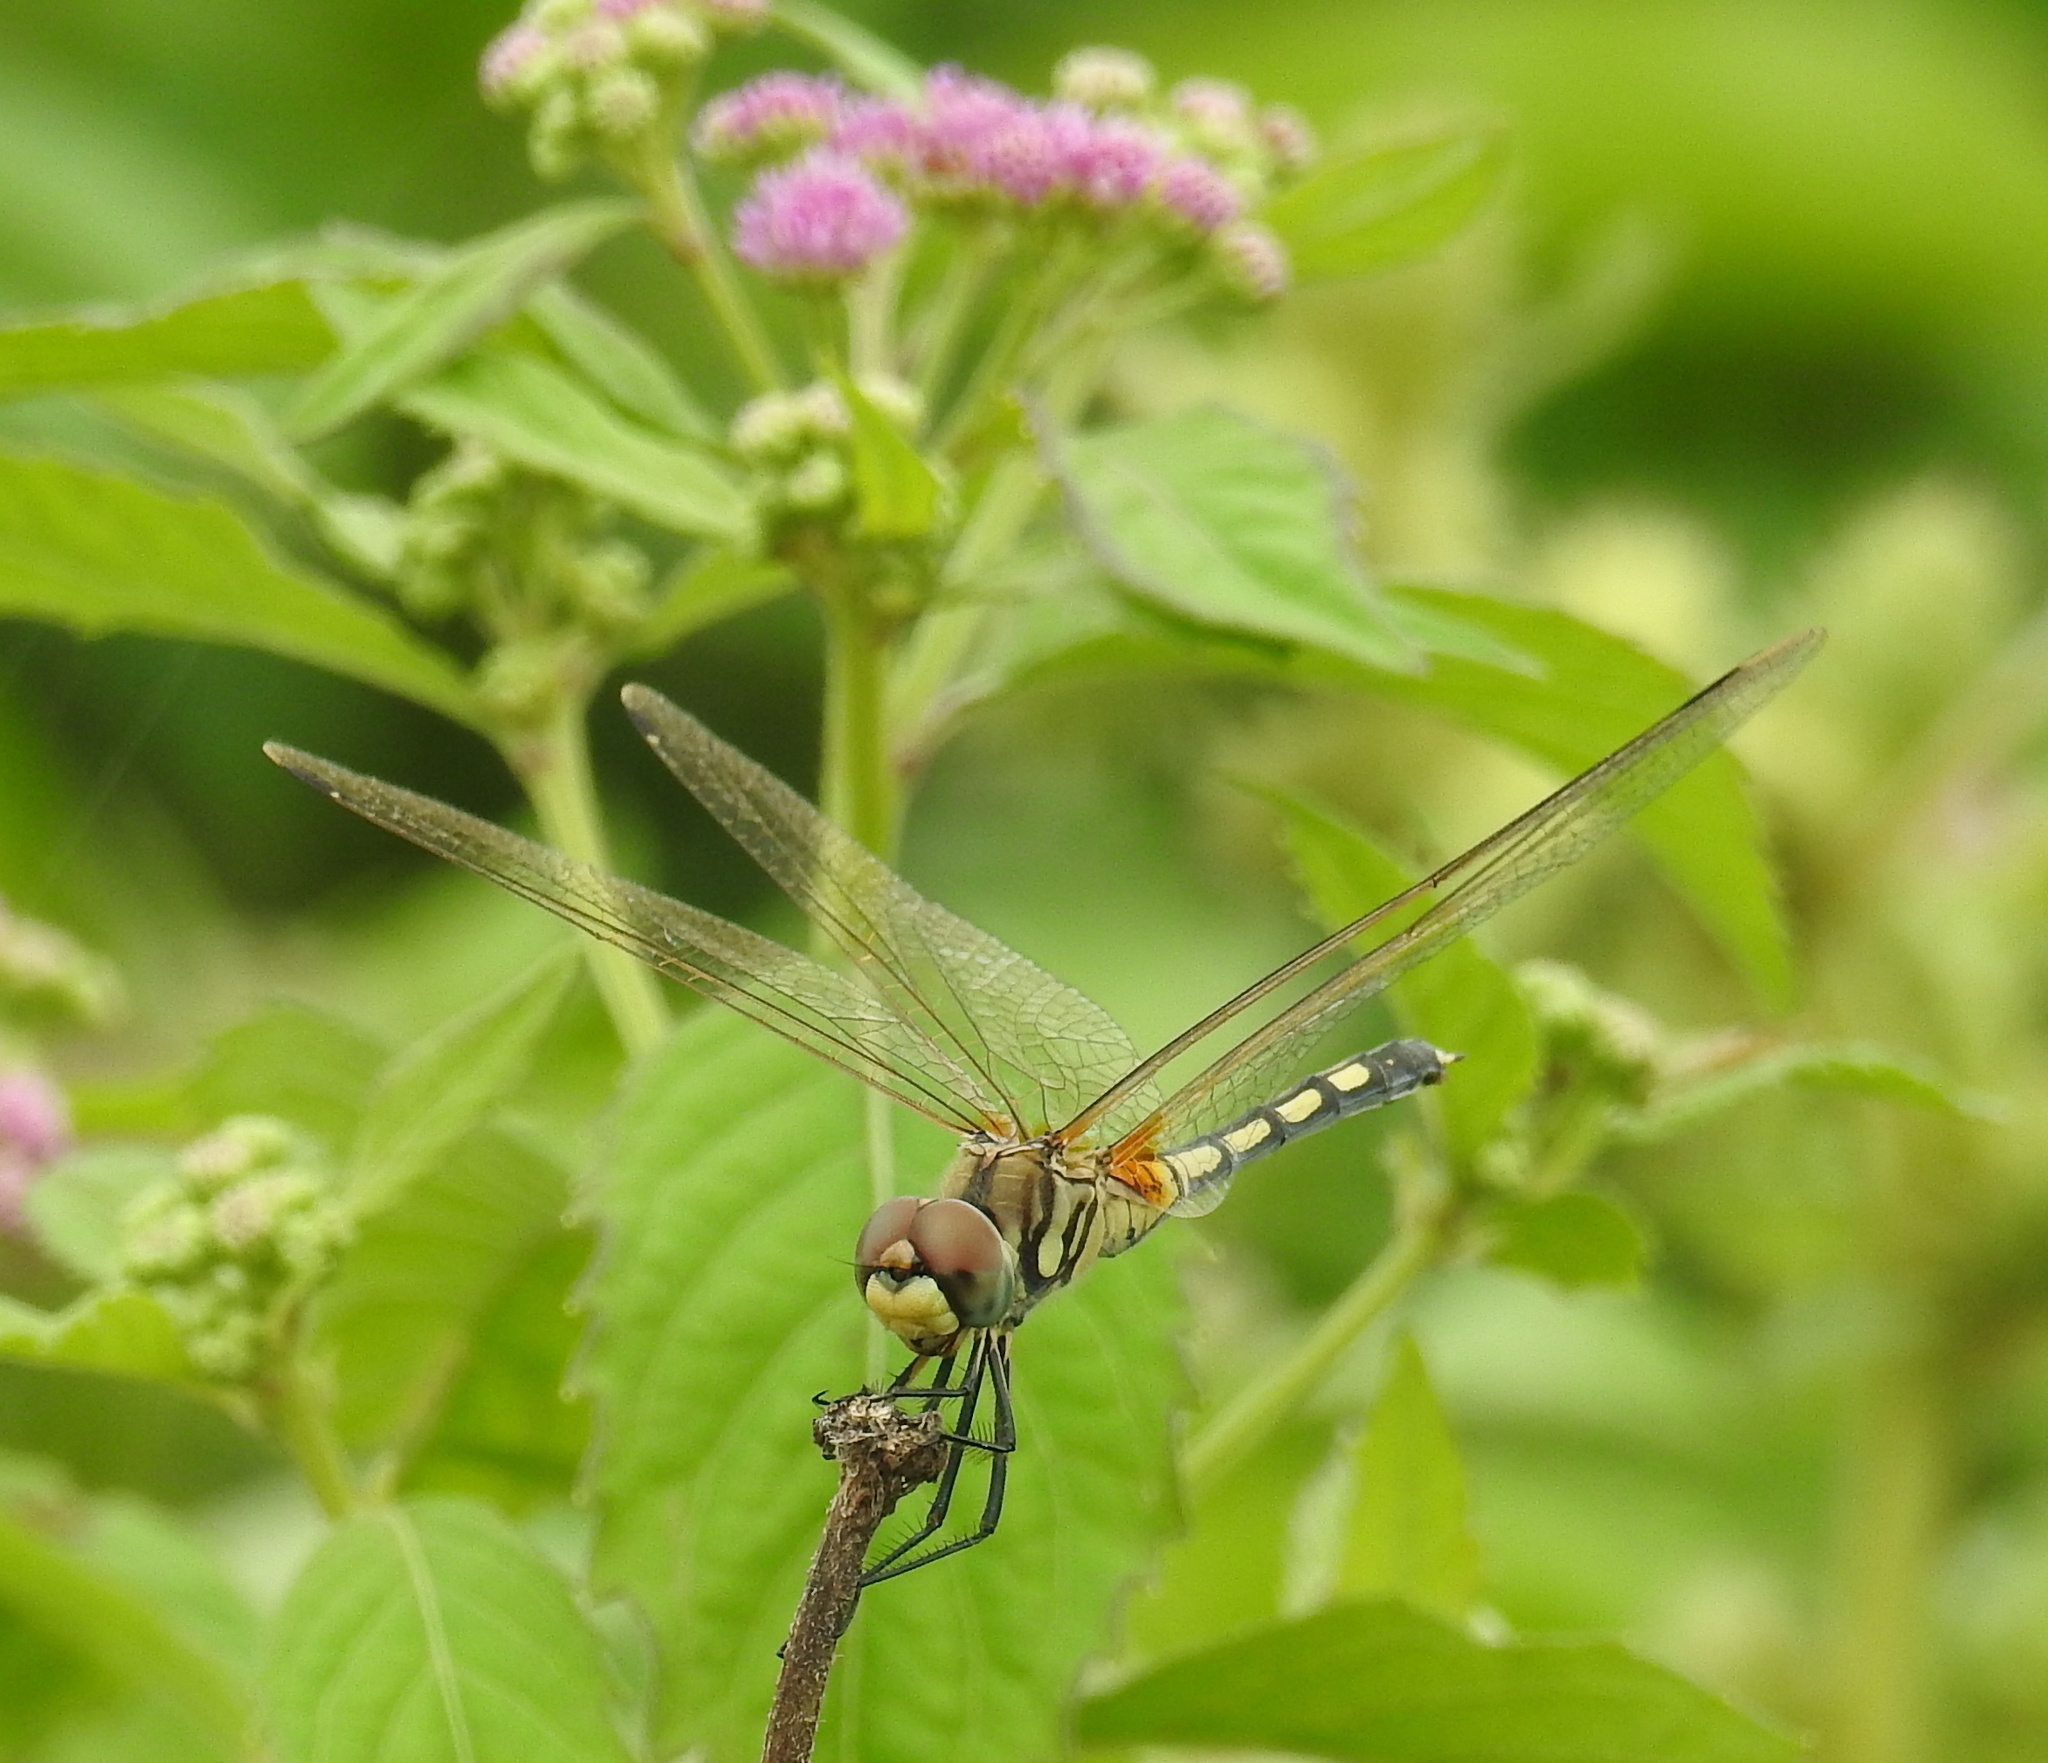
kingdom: Animalia
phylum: Arthropoda
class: Insecta
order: Odonata
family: Libellulidae
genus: Trithemis
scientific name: Trithemis pallidinervis
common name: Dancing dropwing
